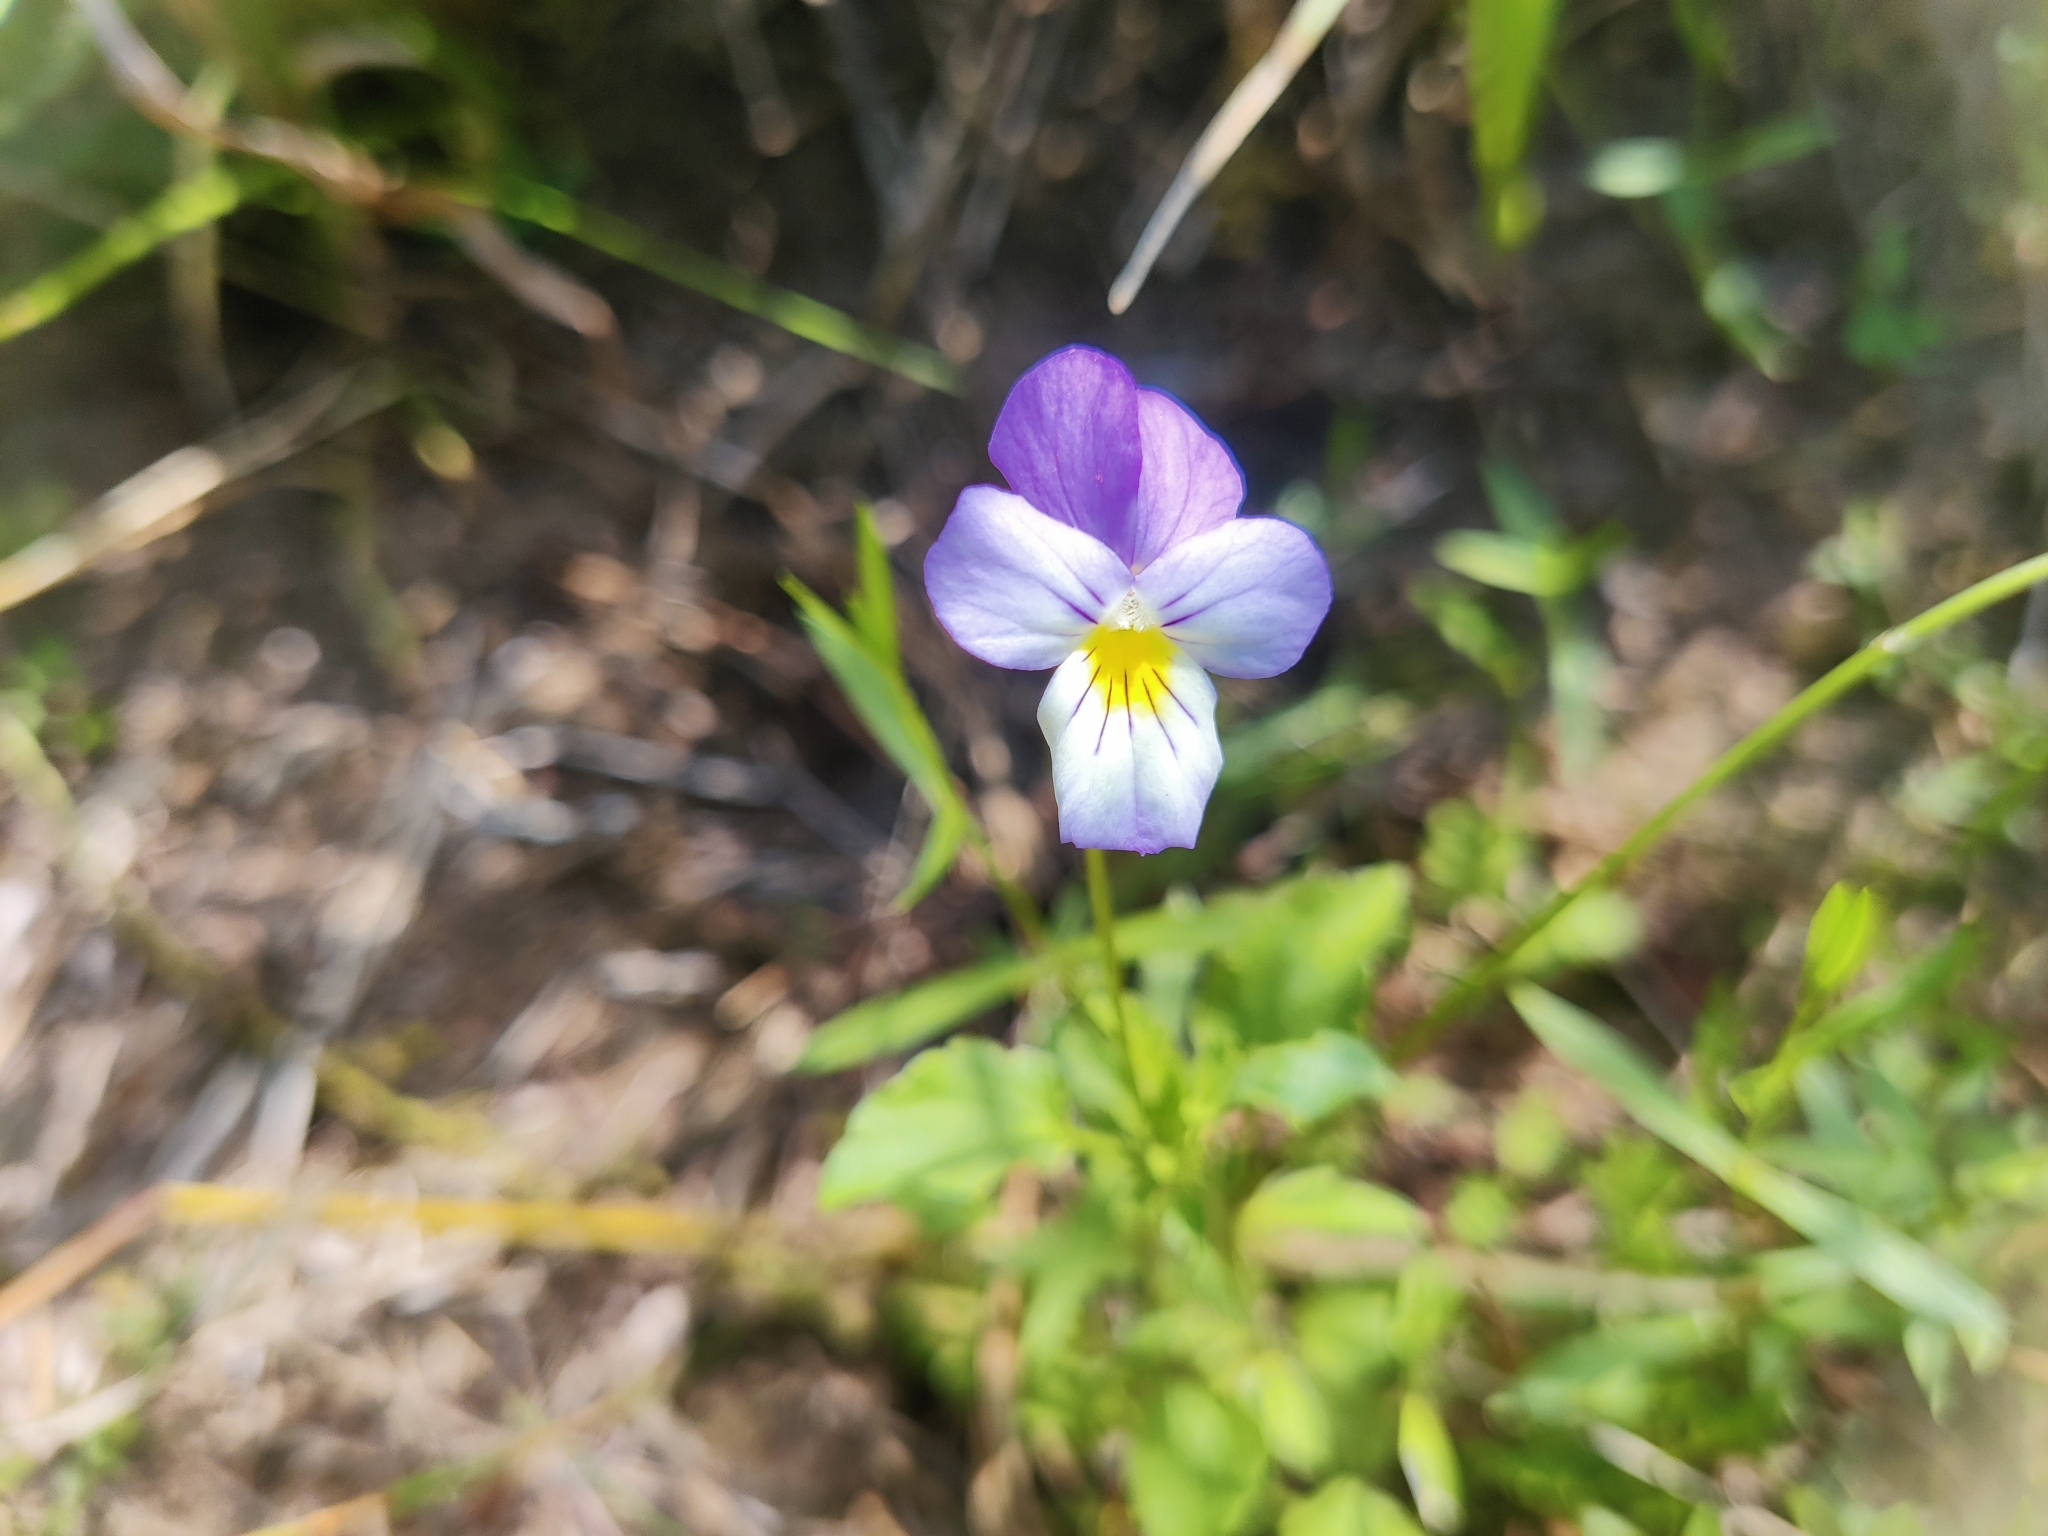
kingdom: Plantae
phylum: Tracheophyta
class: Magnoliopsida
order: Malpighiales
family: Violaceae
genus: Viola
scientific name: Viola tricolor
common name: Pansy
